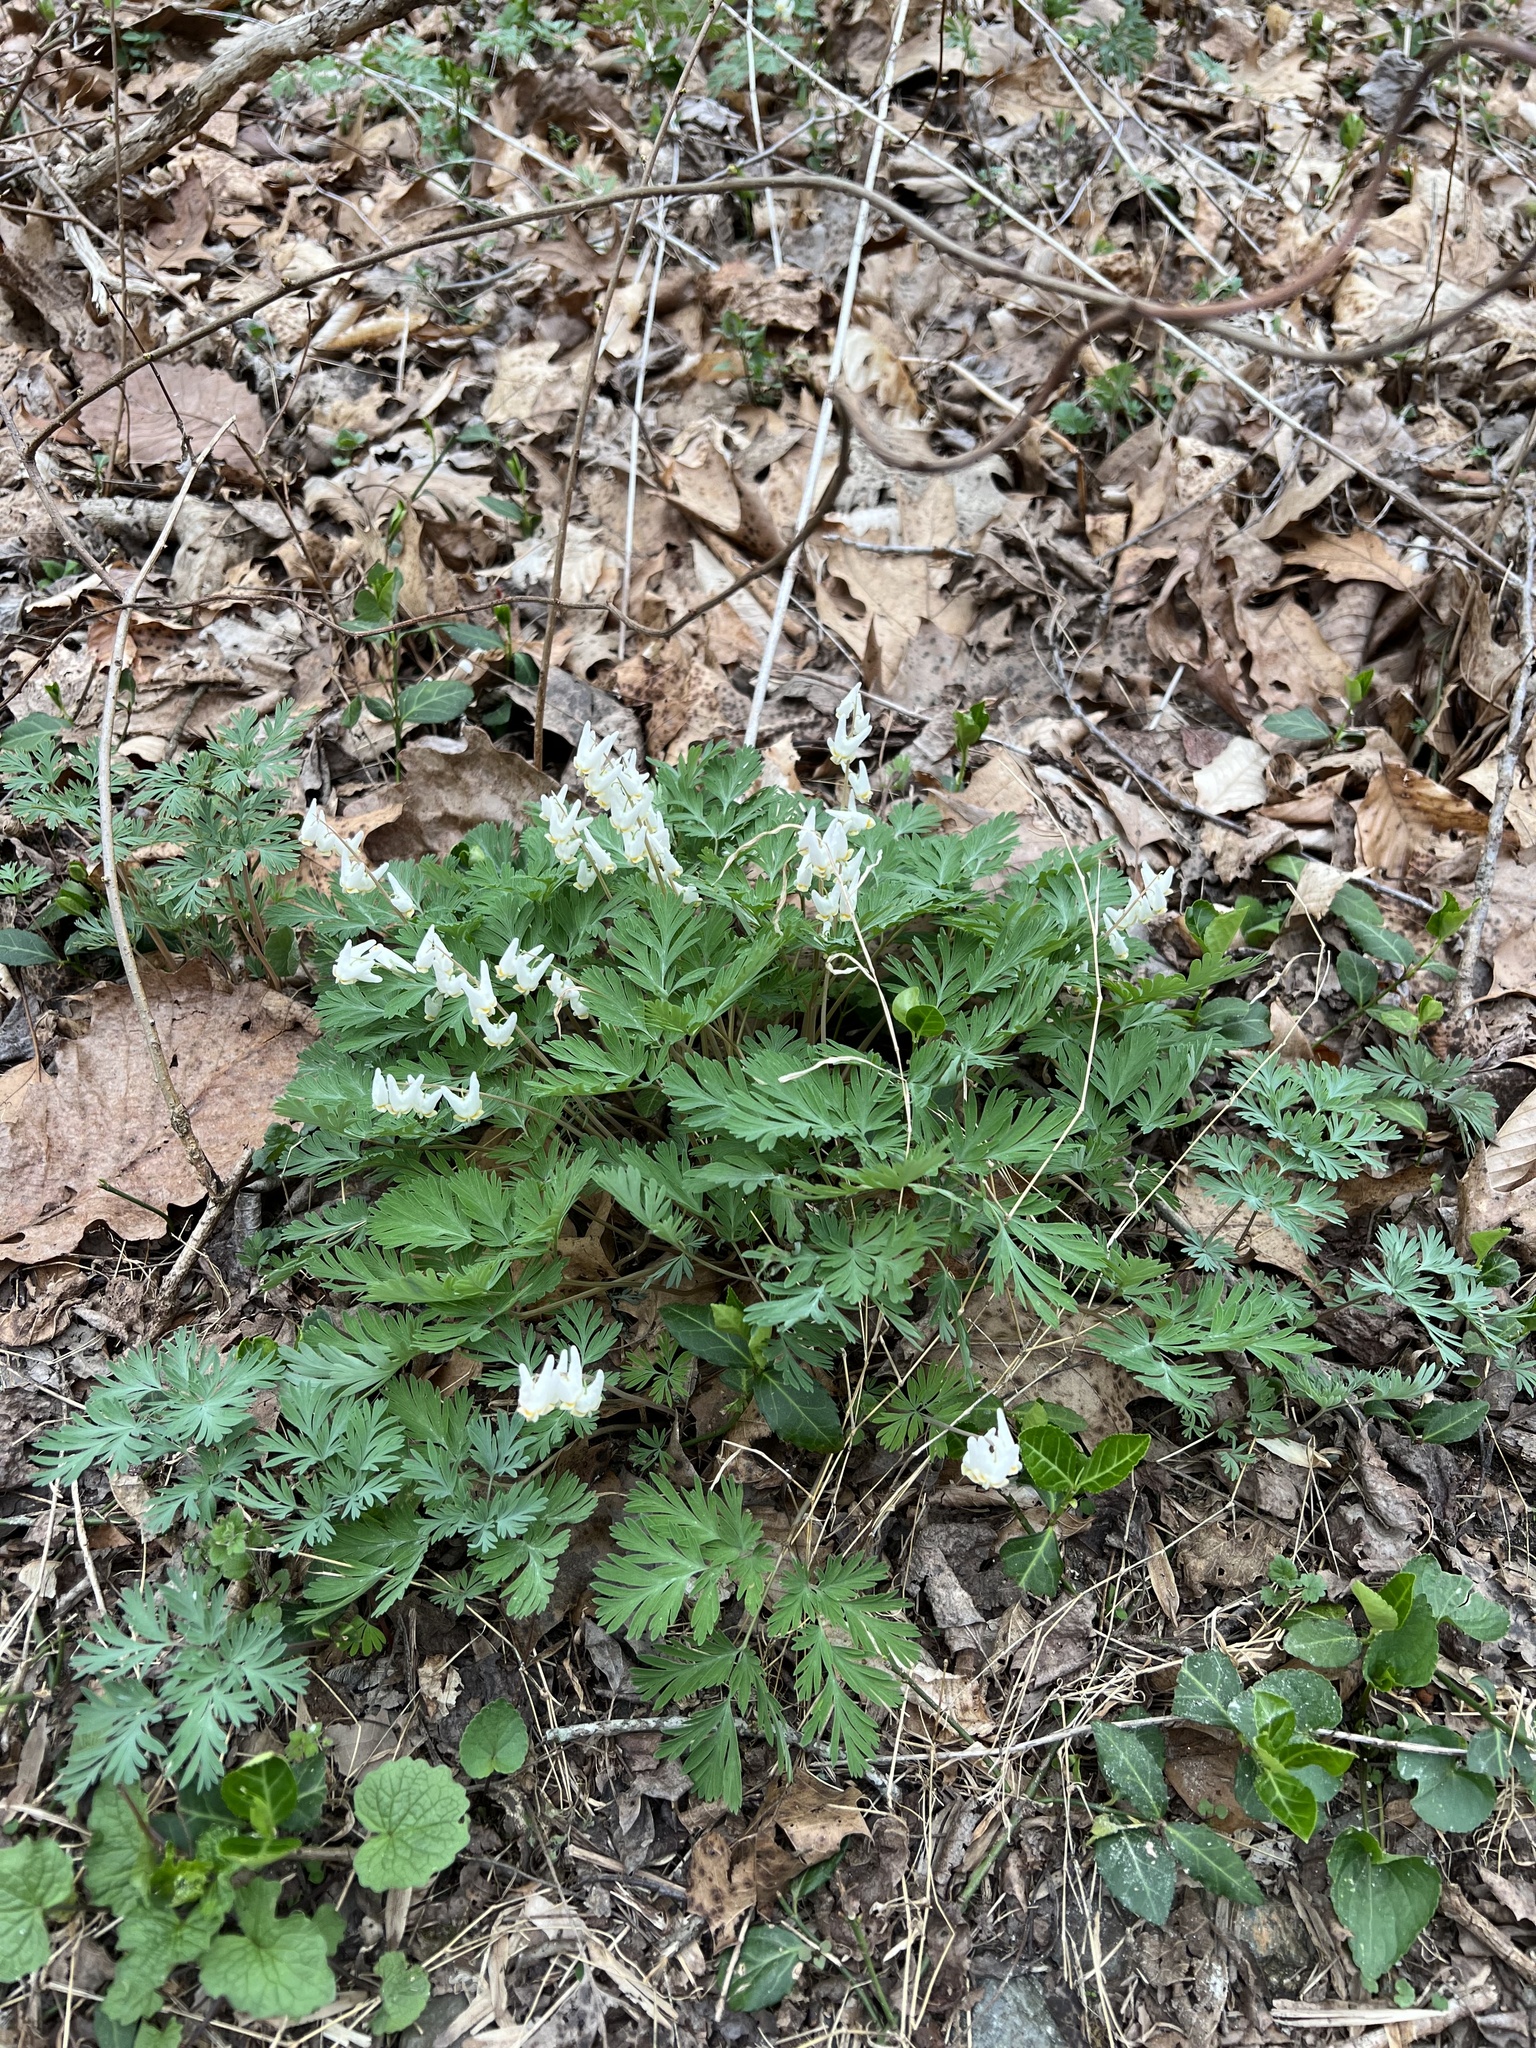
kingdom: Plantae
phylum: Tracheophyta
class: Magnoliopsida
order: Ranunculales
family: Papaveraceae
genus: Dicentra
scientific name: Dicentra cucullaria
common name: Dutchman's breeches
